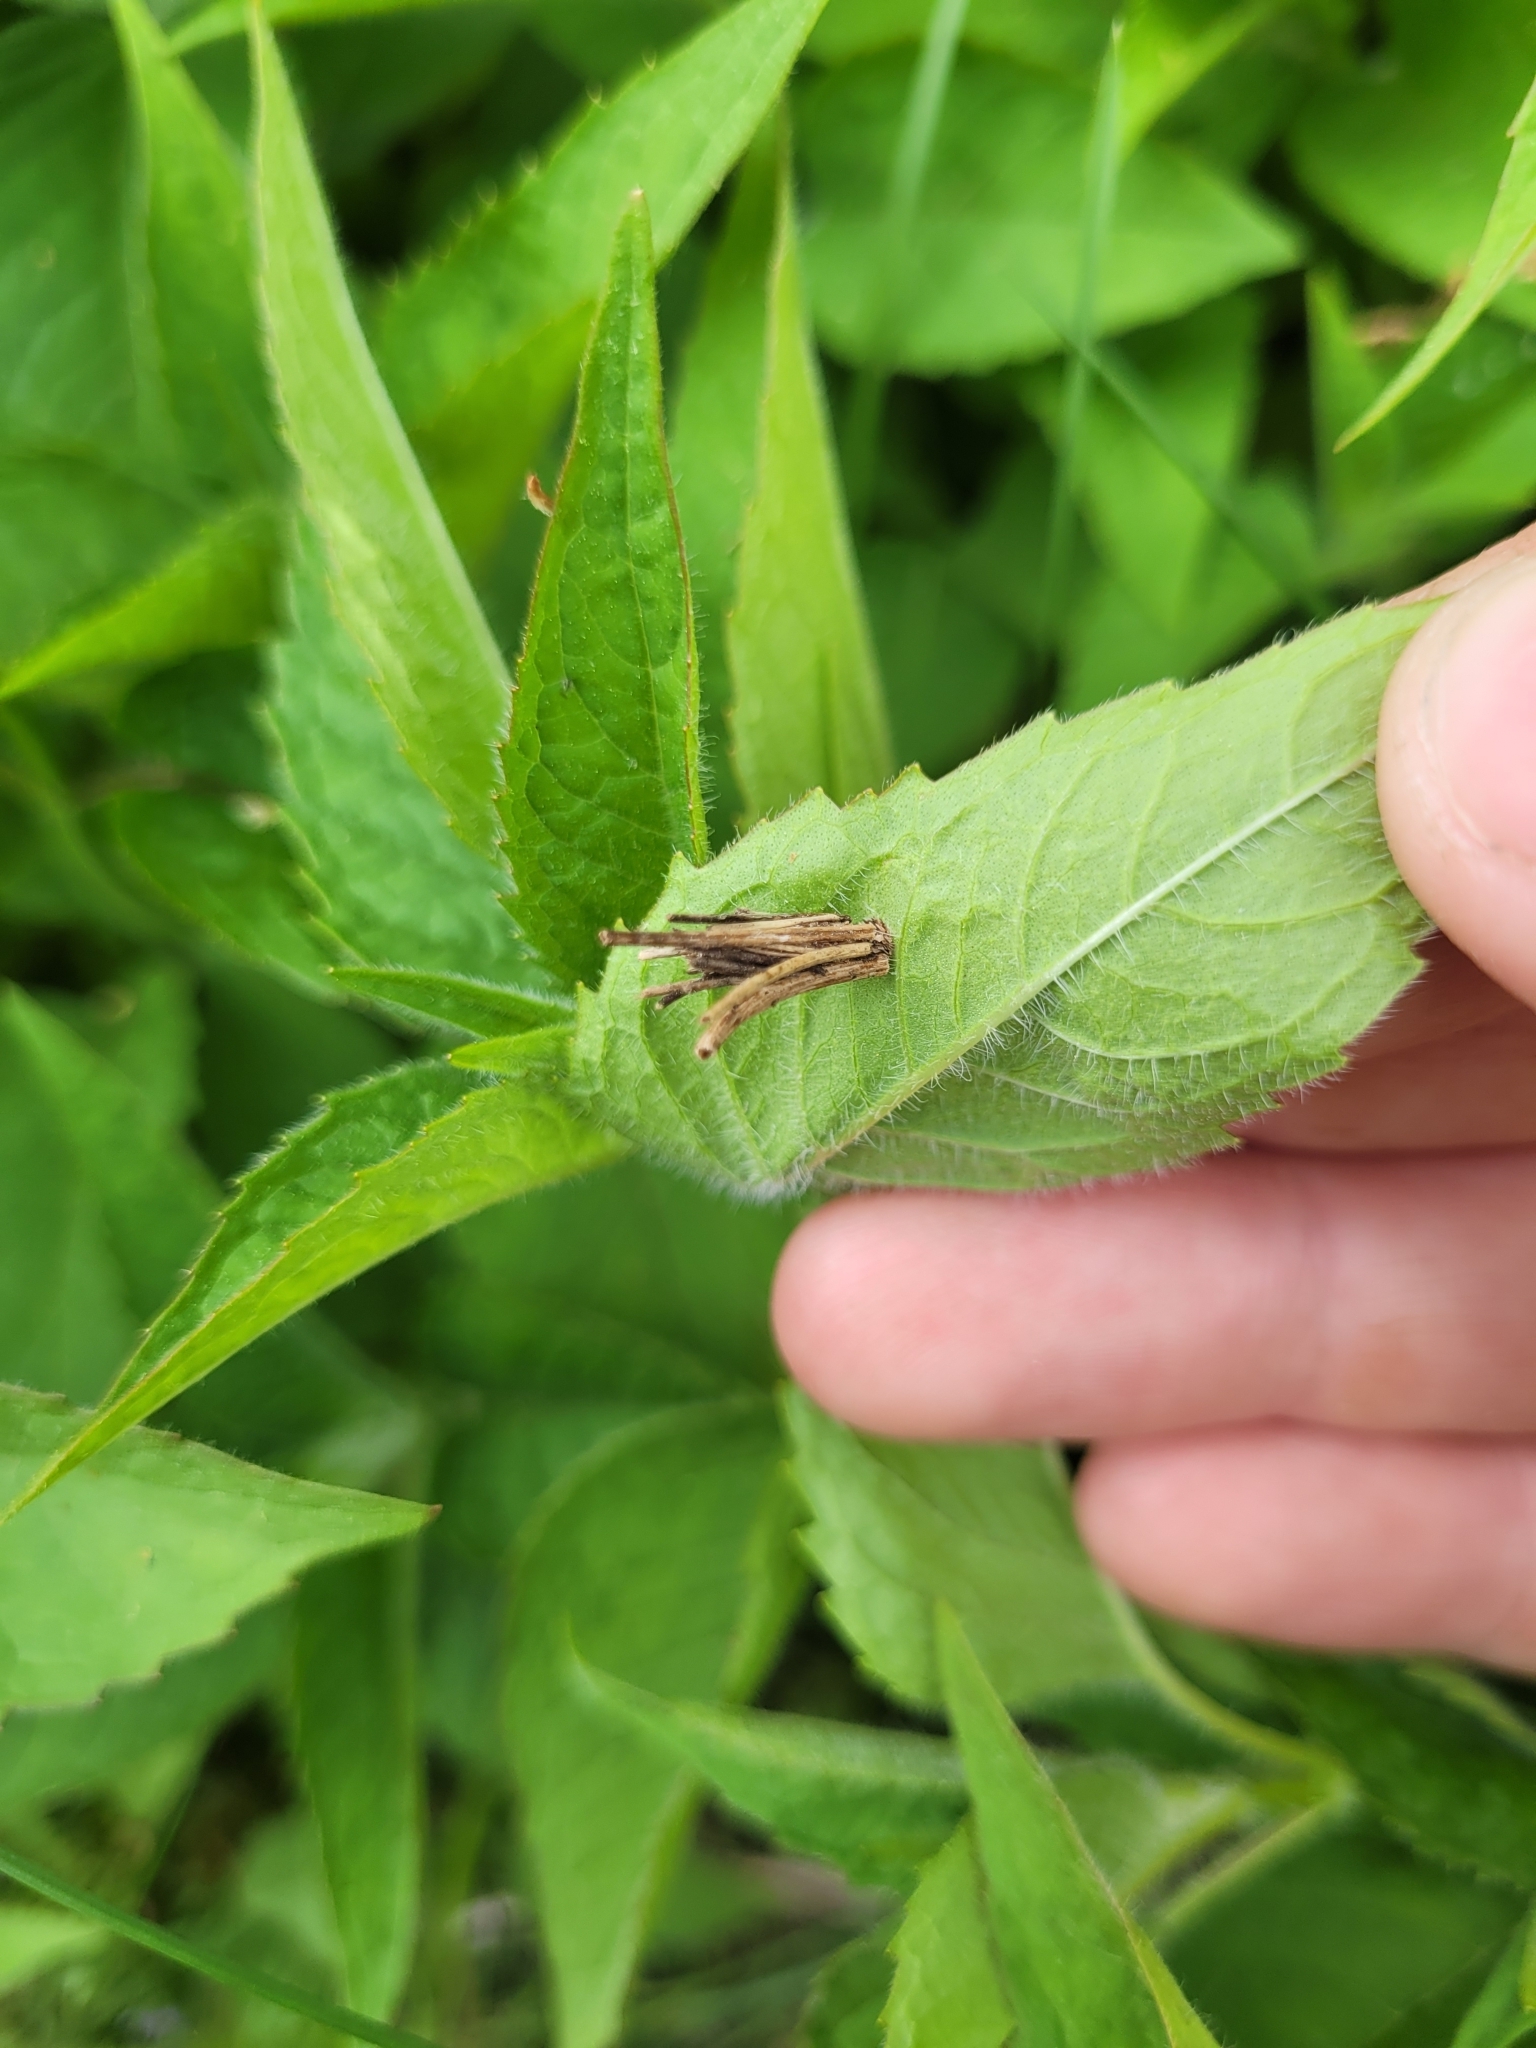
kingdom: Animalia
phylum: Arthropoda
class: Insecta
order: Lepidoptera
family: Psychidae
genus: Psyche
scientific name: Psyche casta
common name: Common sweep
